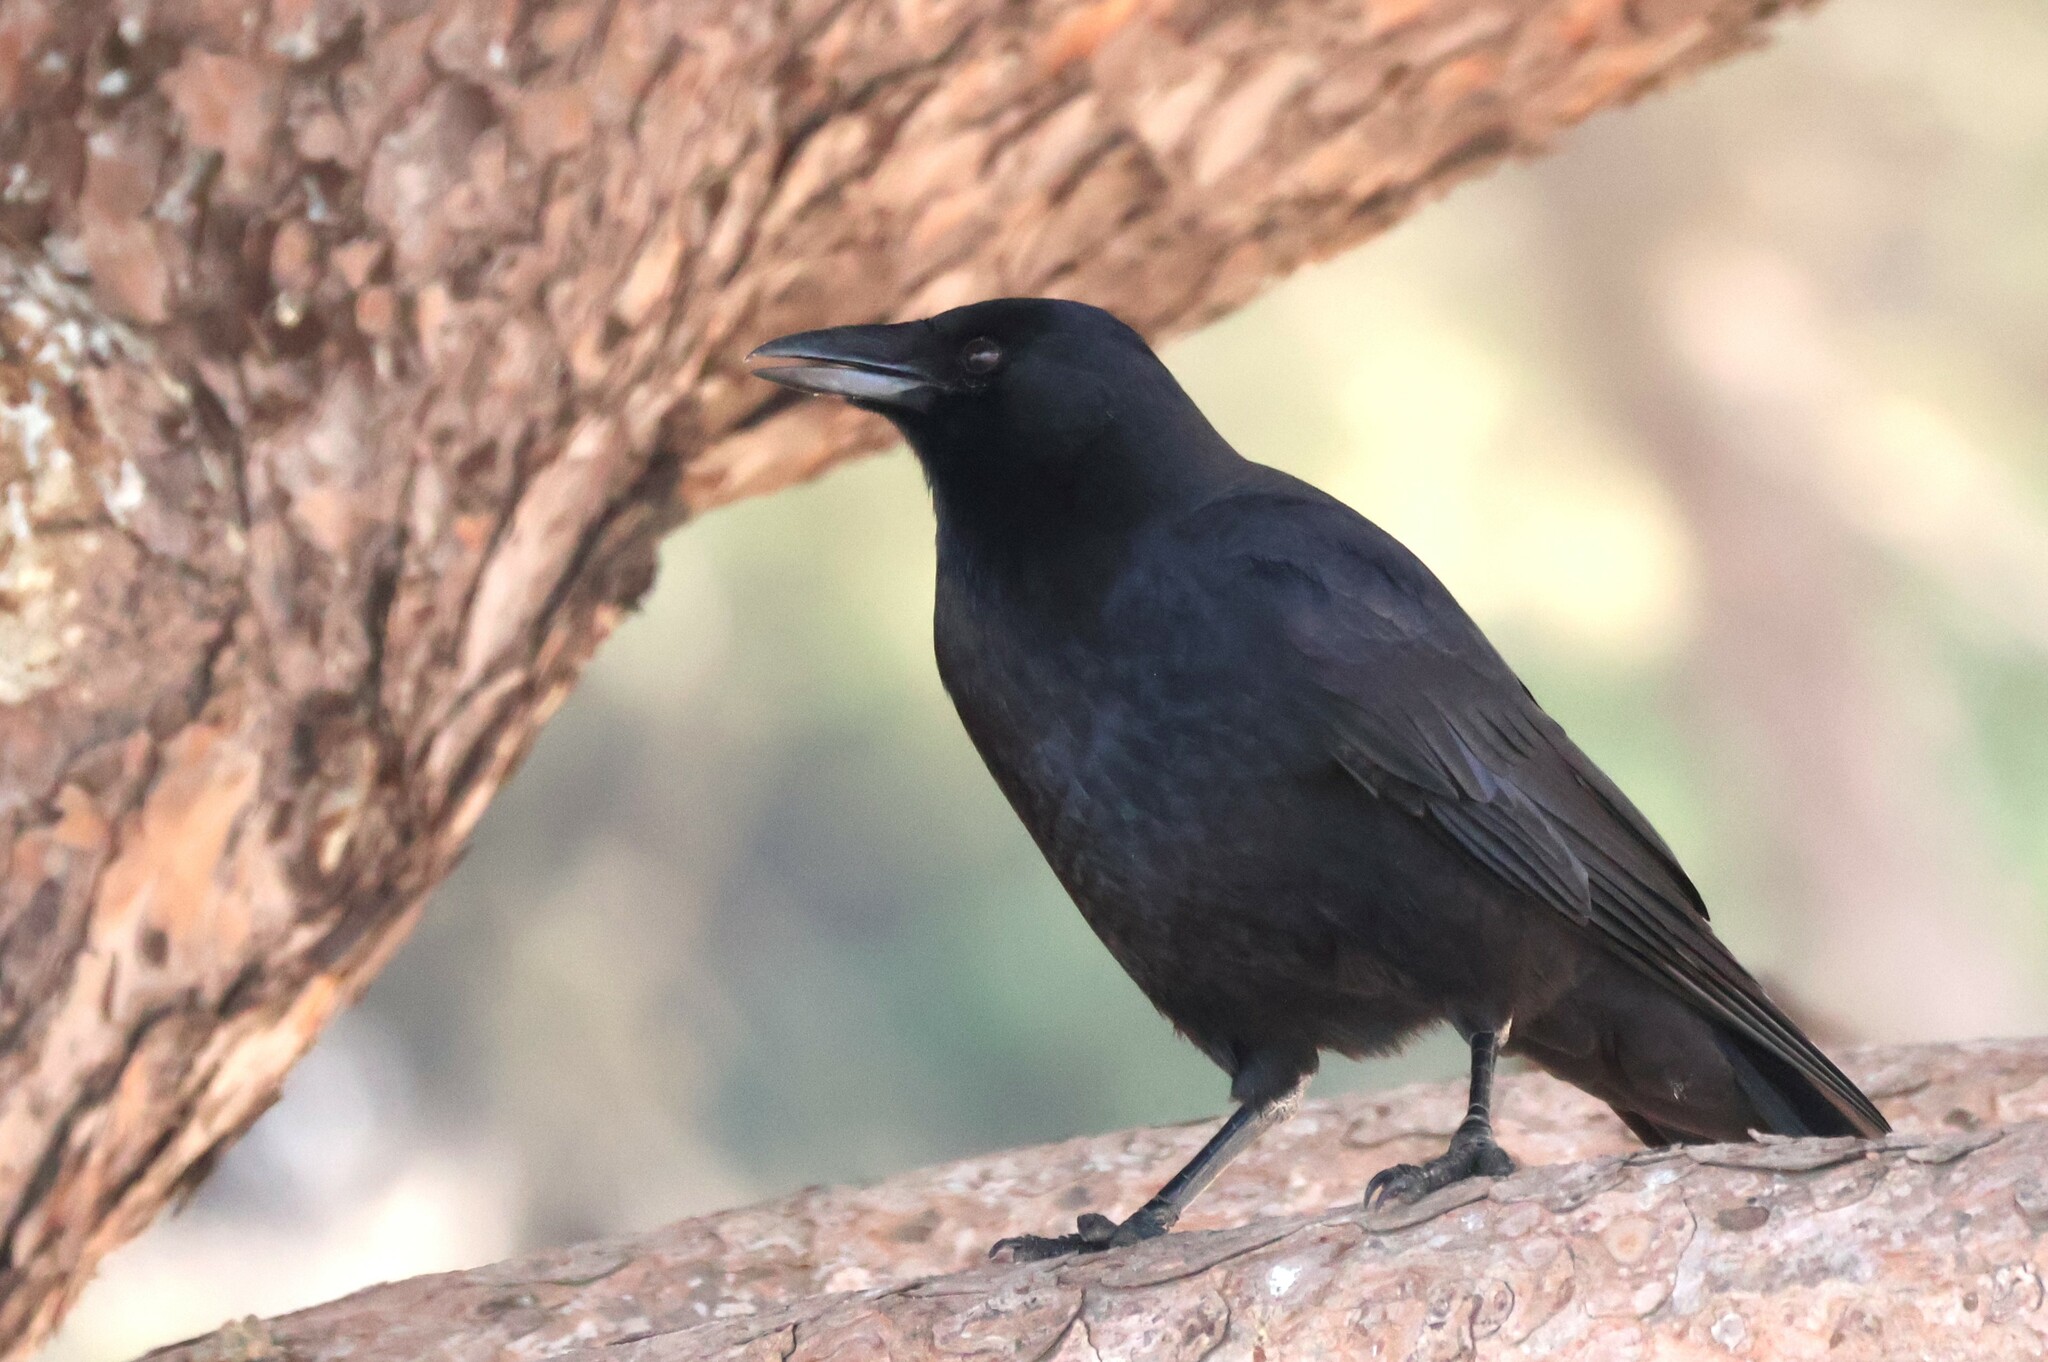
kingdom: Animalia
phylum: Chordata
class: Aves
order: Passeriformes
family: Corvidae
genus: Corvus
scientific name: Corvus brachyrhynchos
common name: American crow
